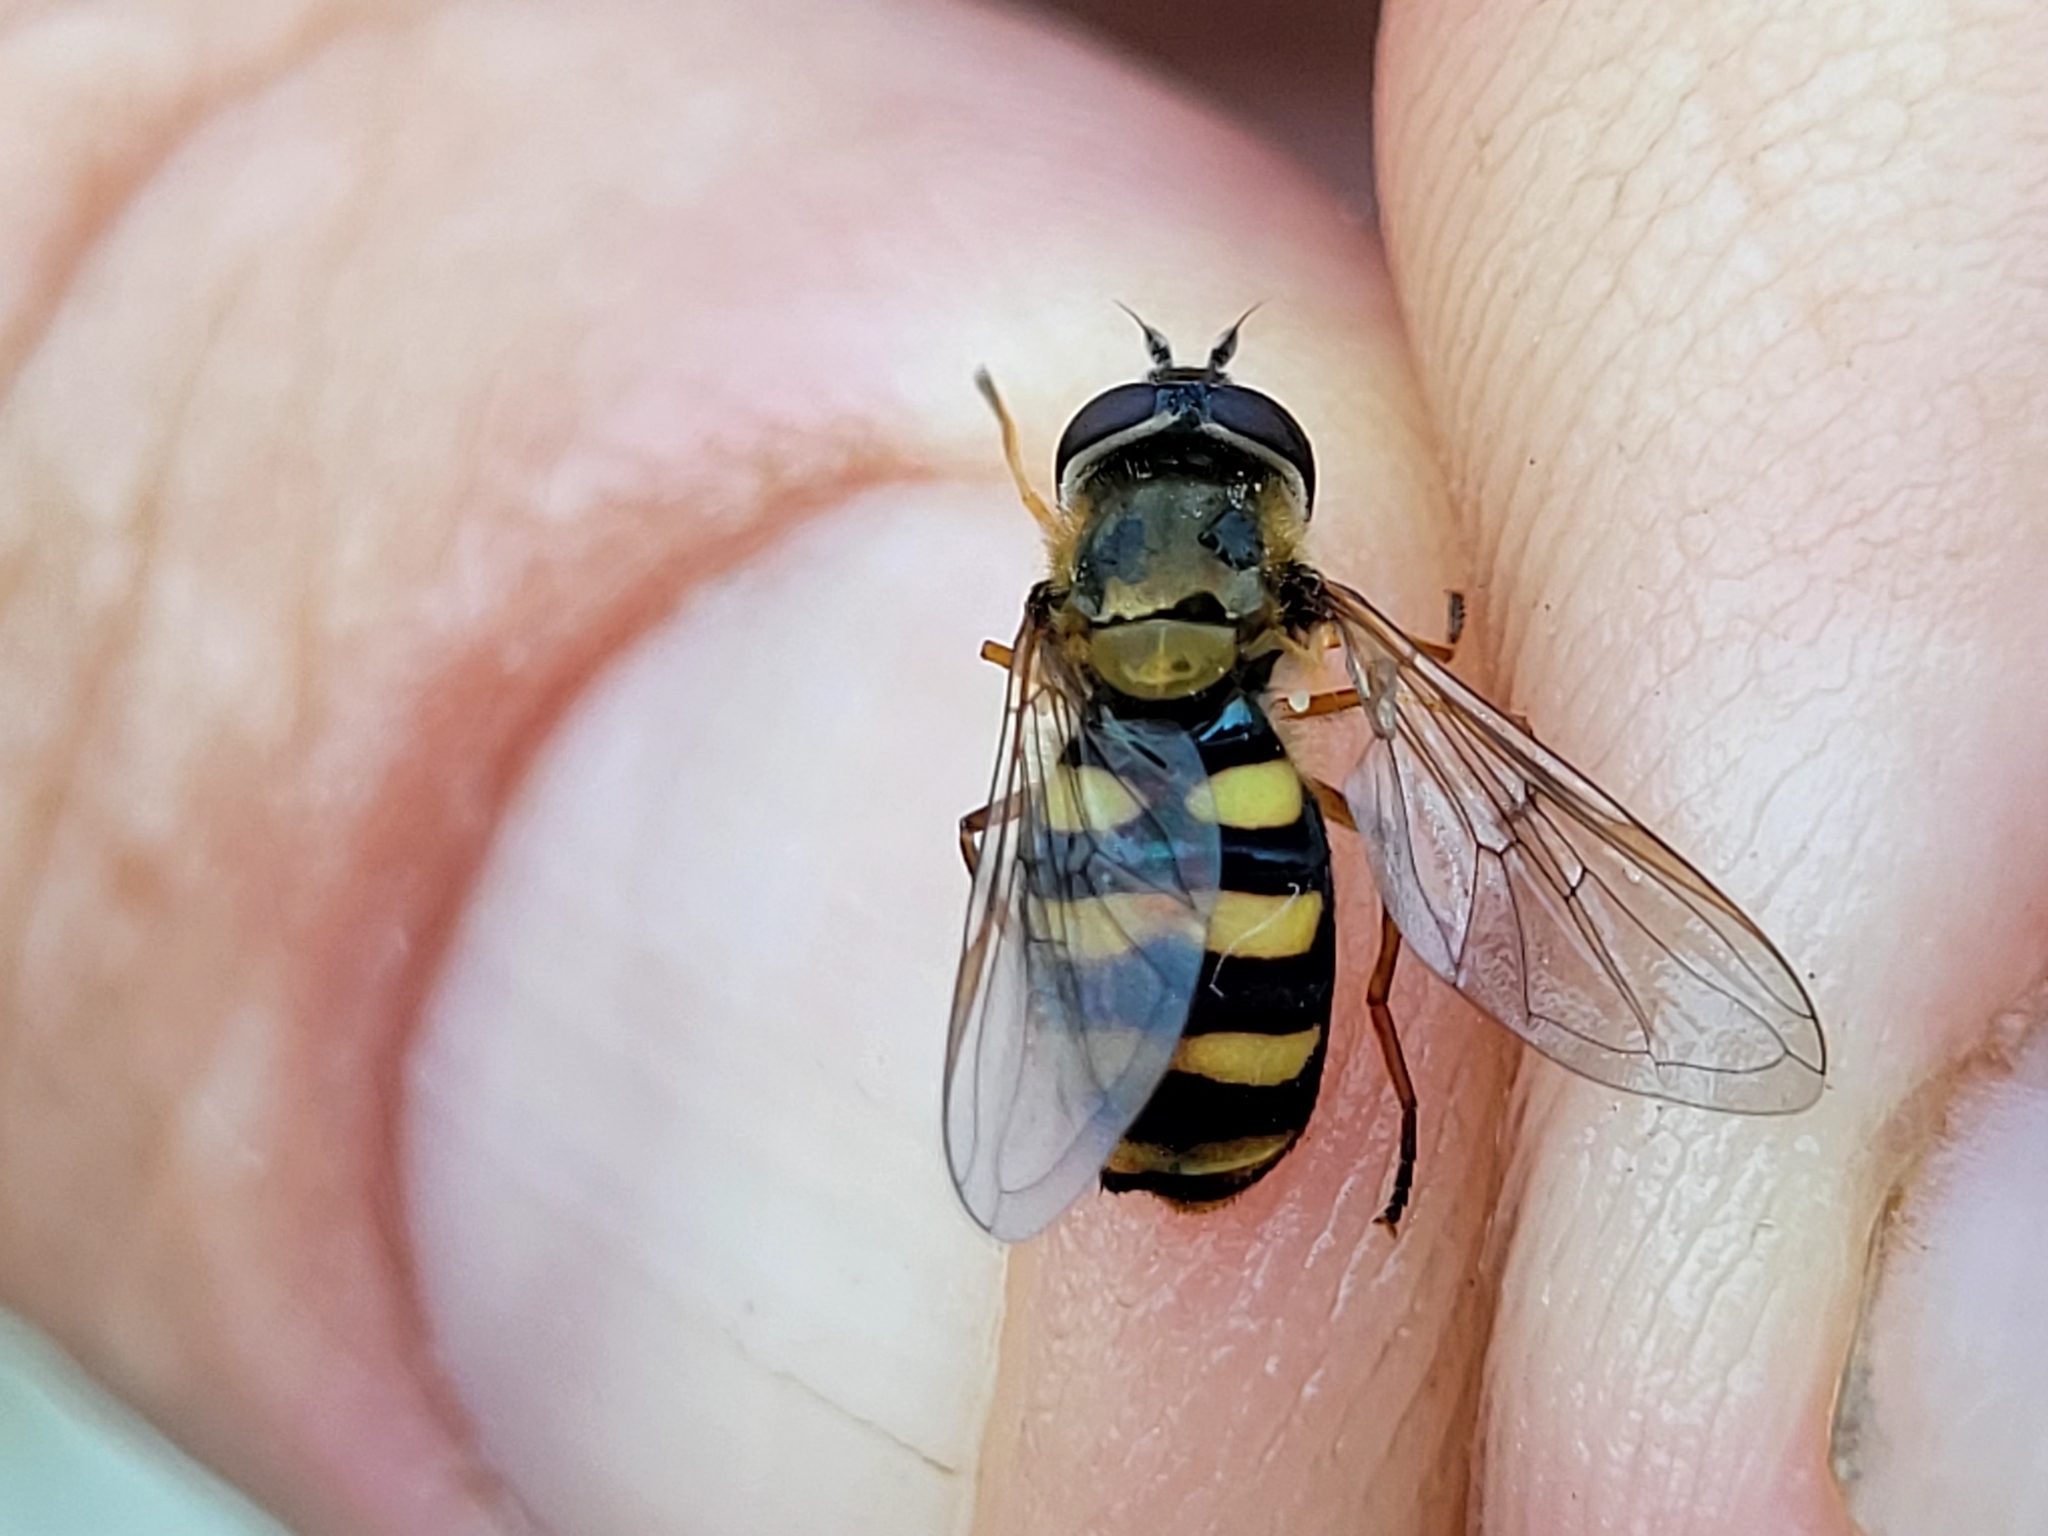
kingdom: Animalia
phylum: Arthropoda
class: Insecta
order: Diptera
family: Syrphidae
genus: Eupeodes
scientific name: Eupeodes fumipennis
